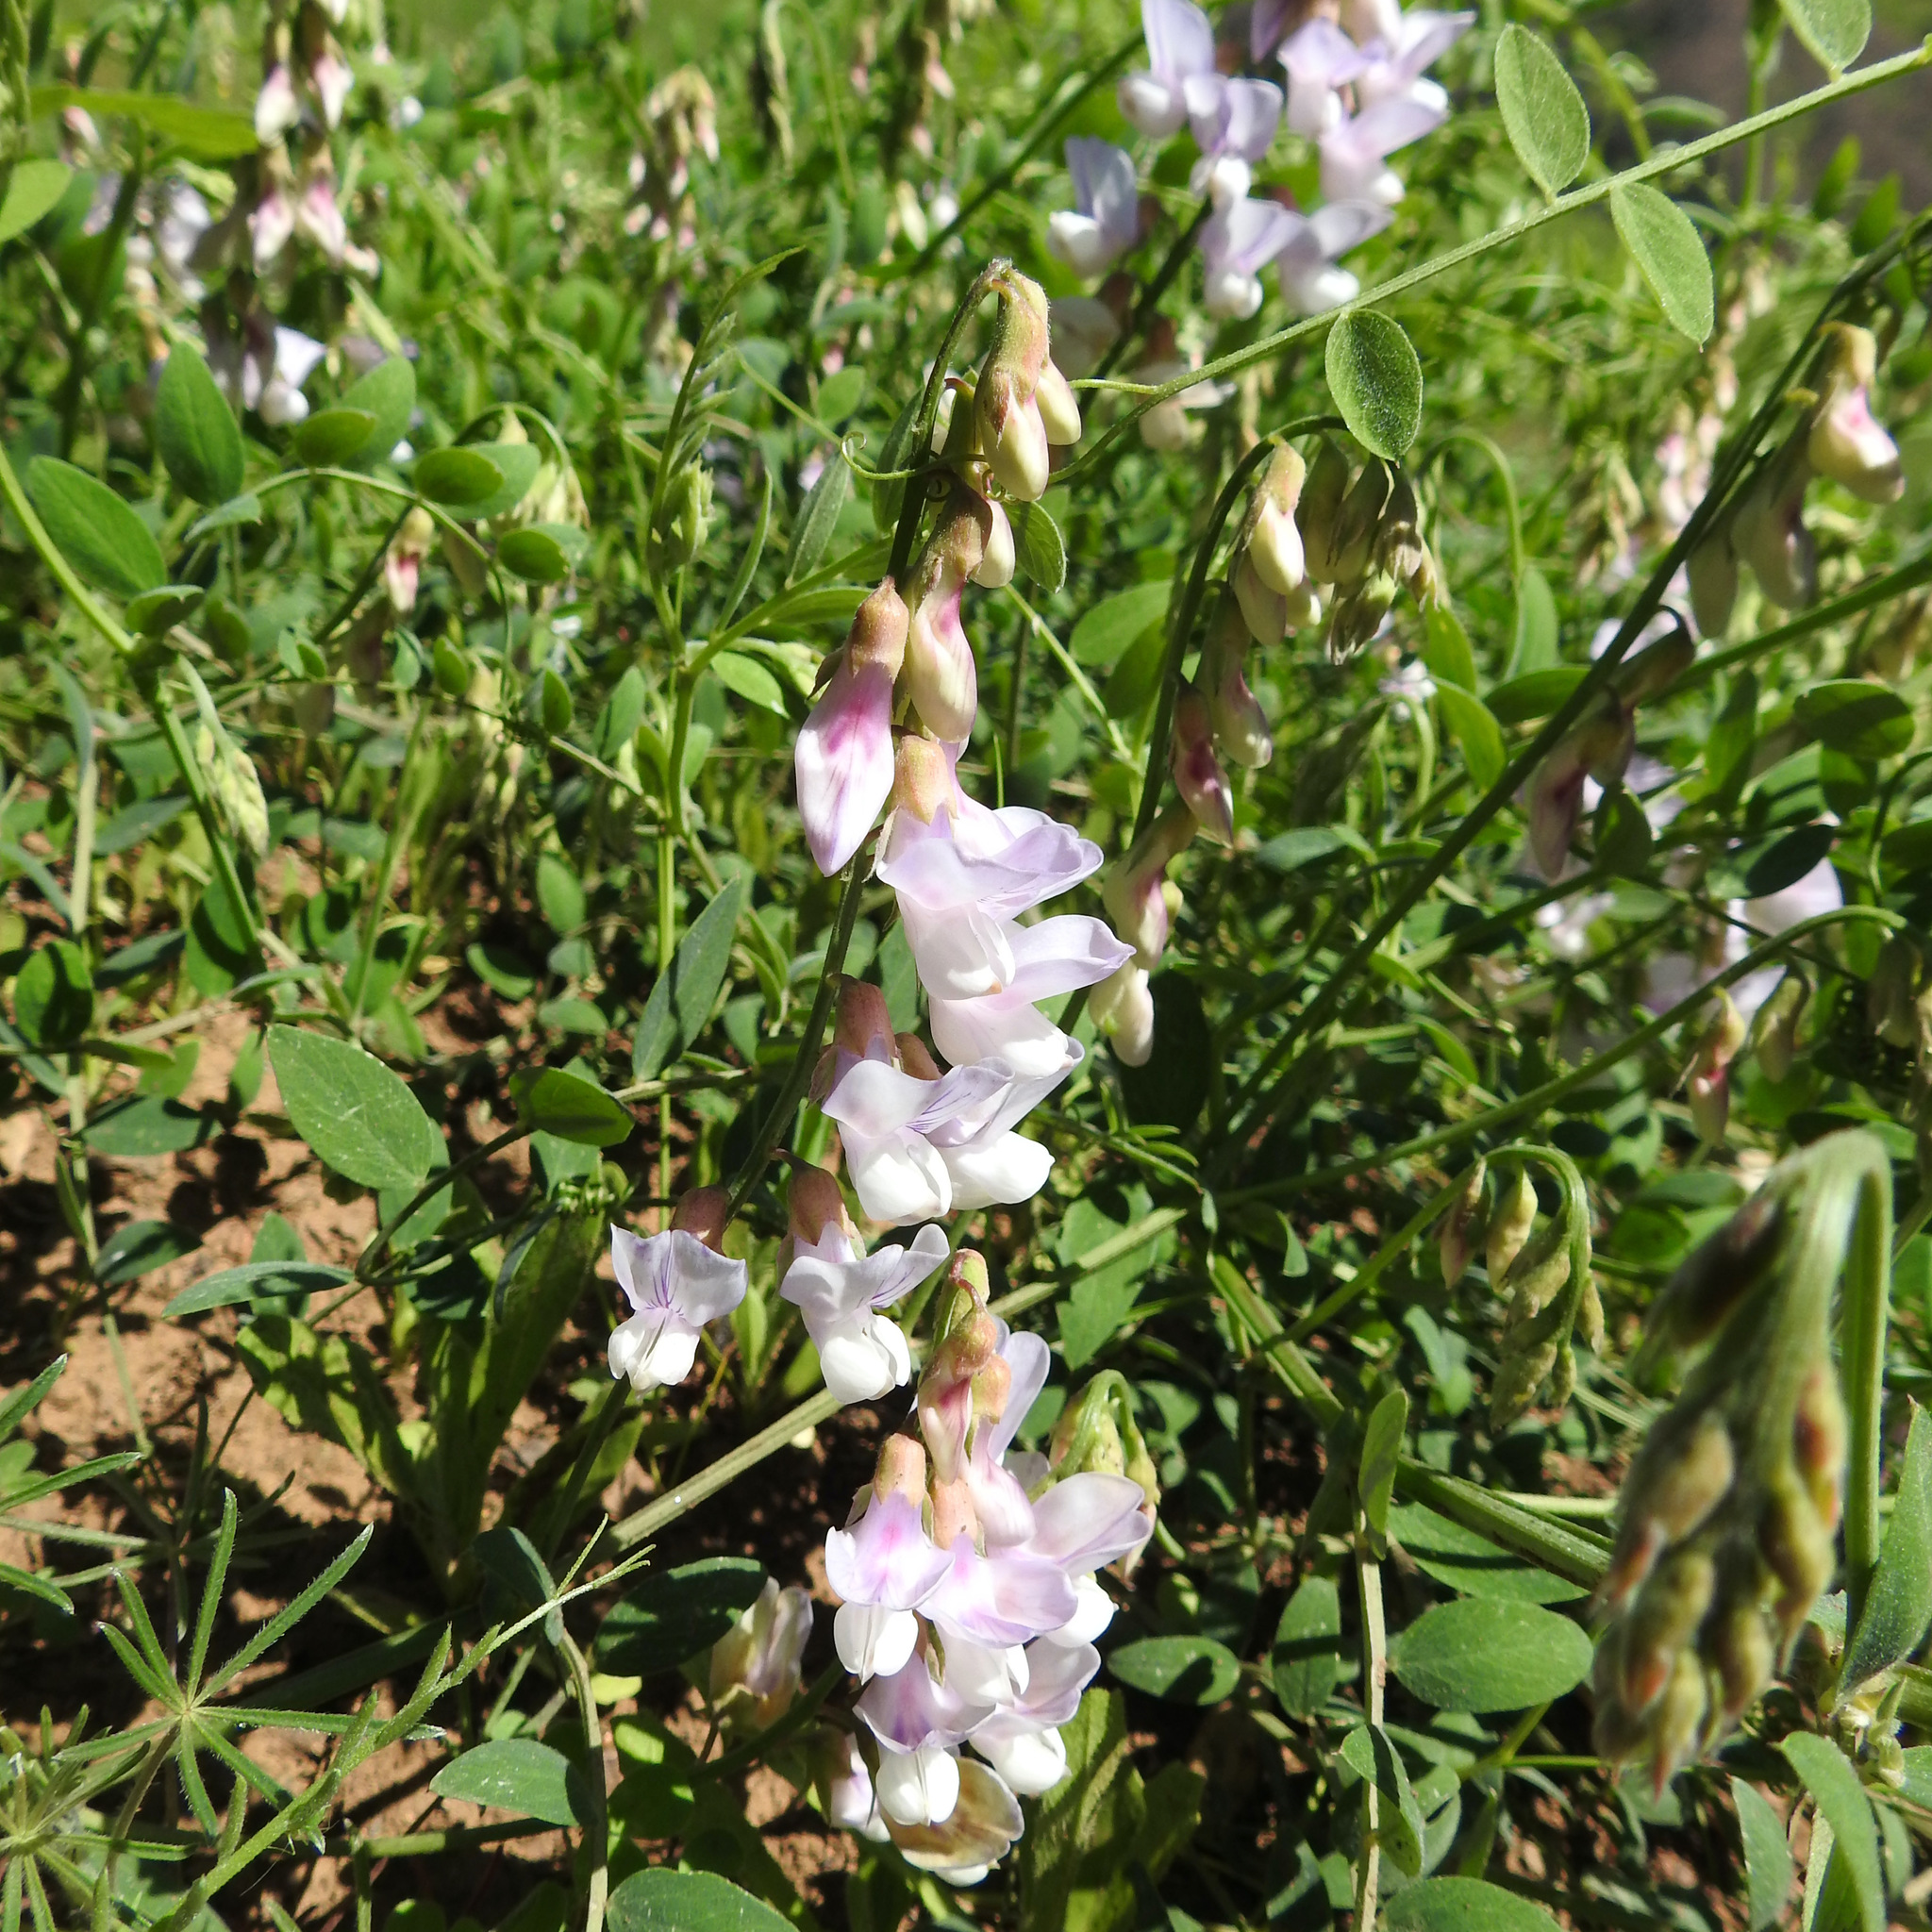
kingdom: Plantae
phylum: Tracheophyta
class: Magnoliopsida
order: Fabales
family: Fabaceae
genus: Lathyrus
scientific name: Lathyrus vestitus
